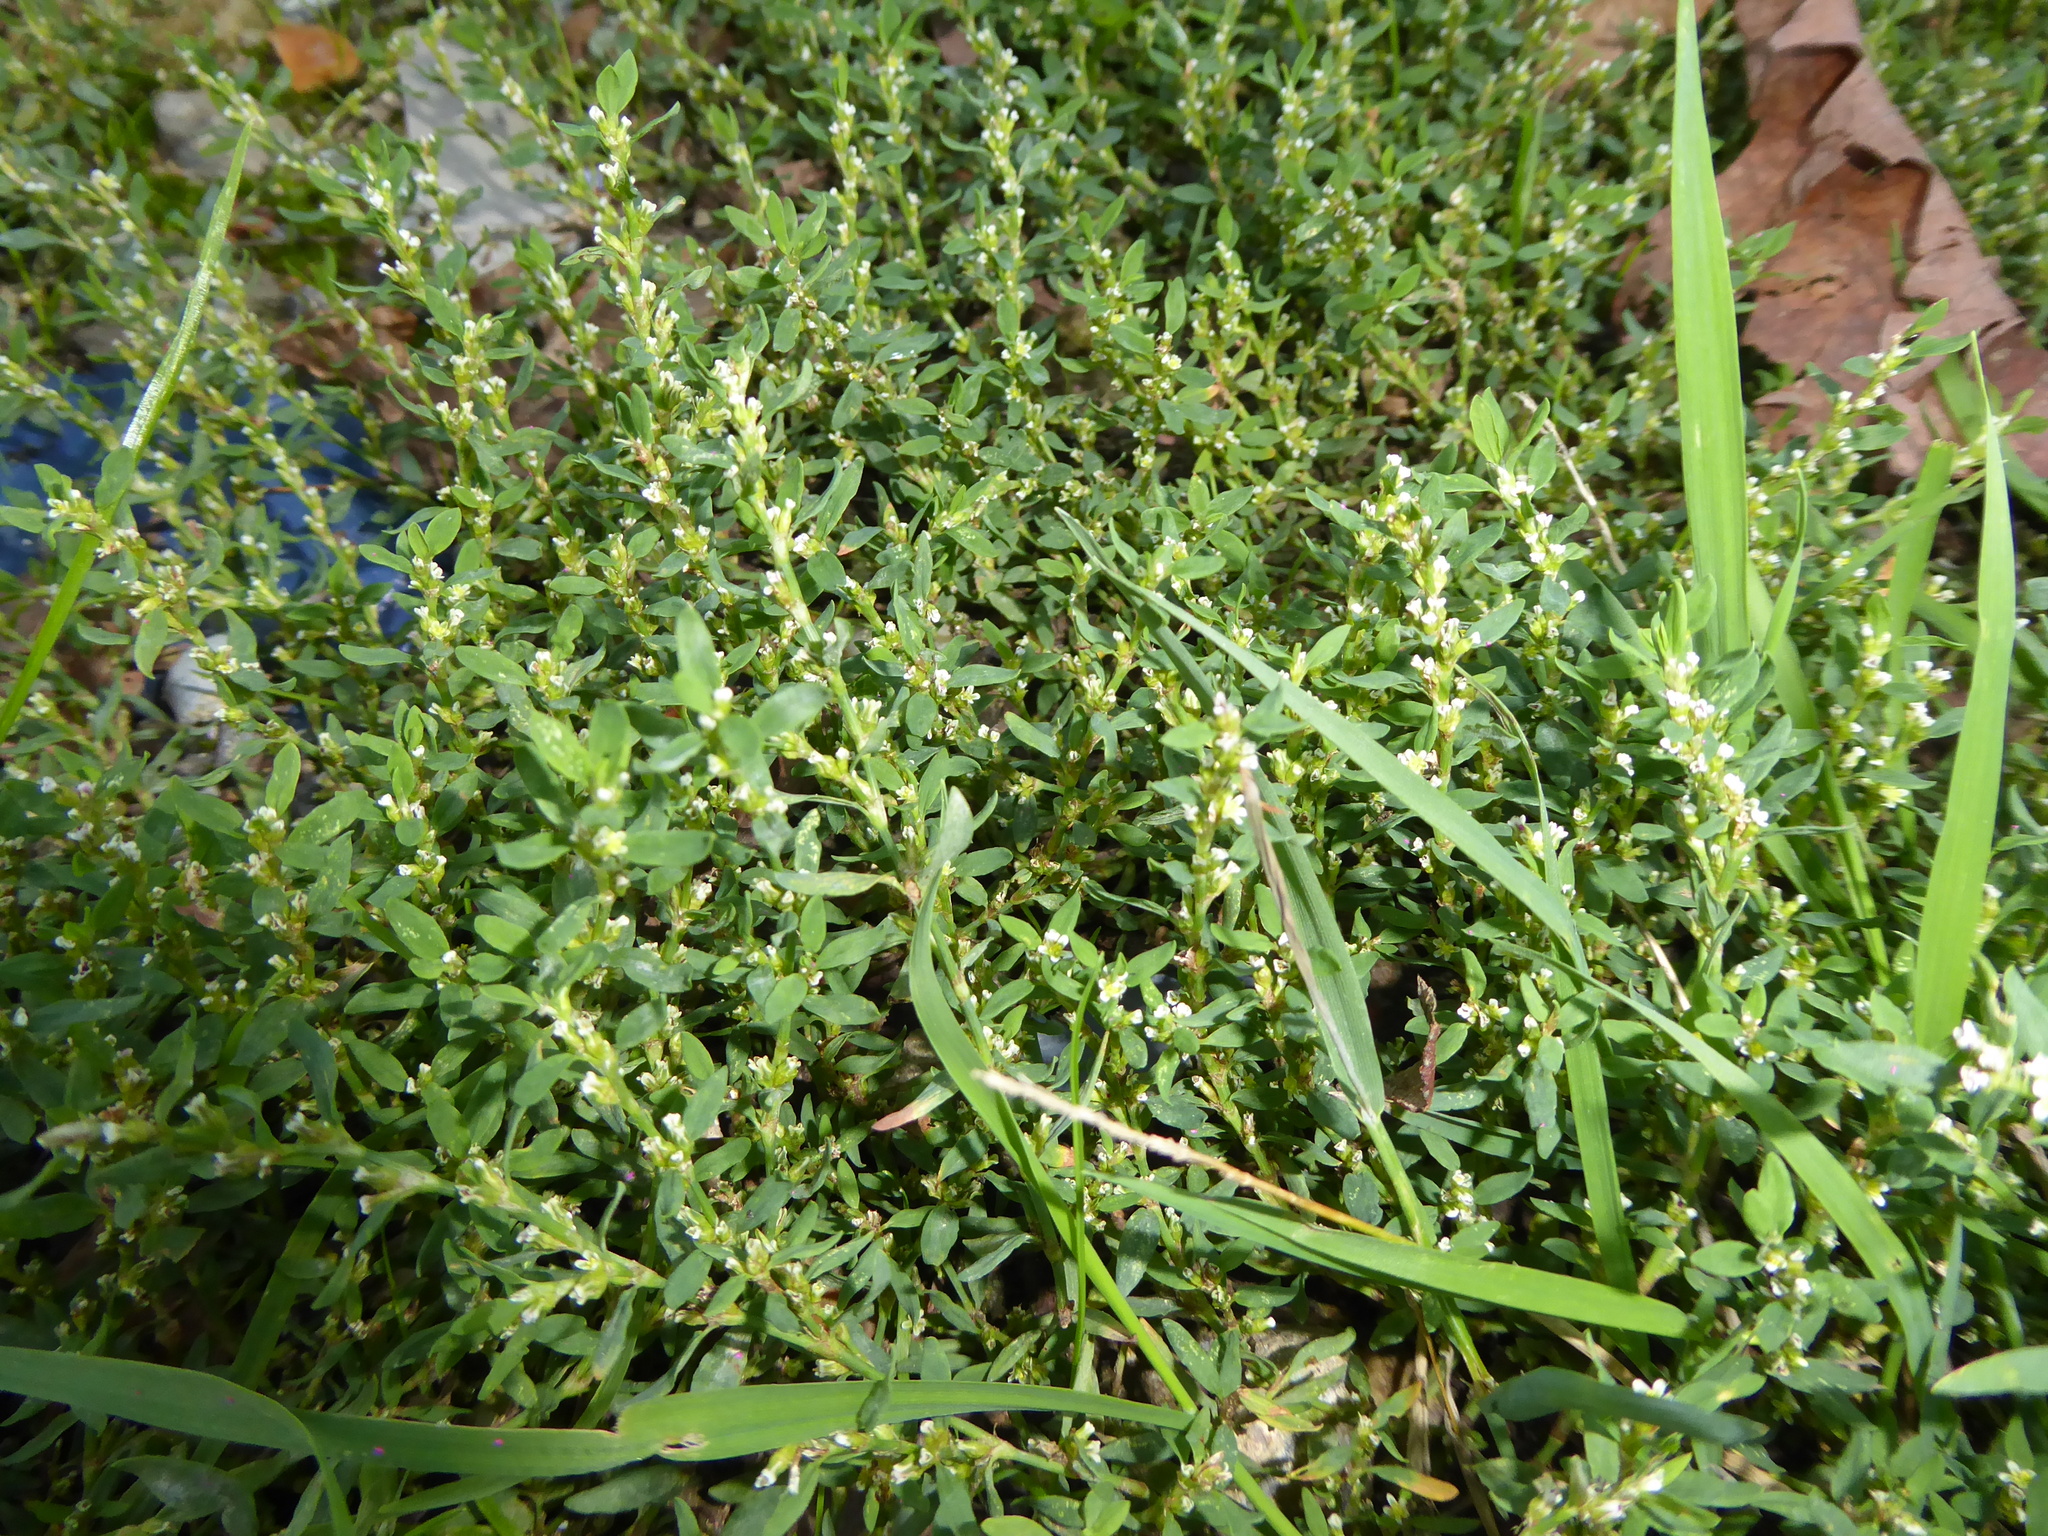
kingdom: Plantae
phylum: Tracheophyta
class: Magnoliopsida
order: Caryophyllales
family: Polygonaceae
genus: Polygonum
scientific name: Polygonum
